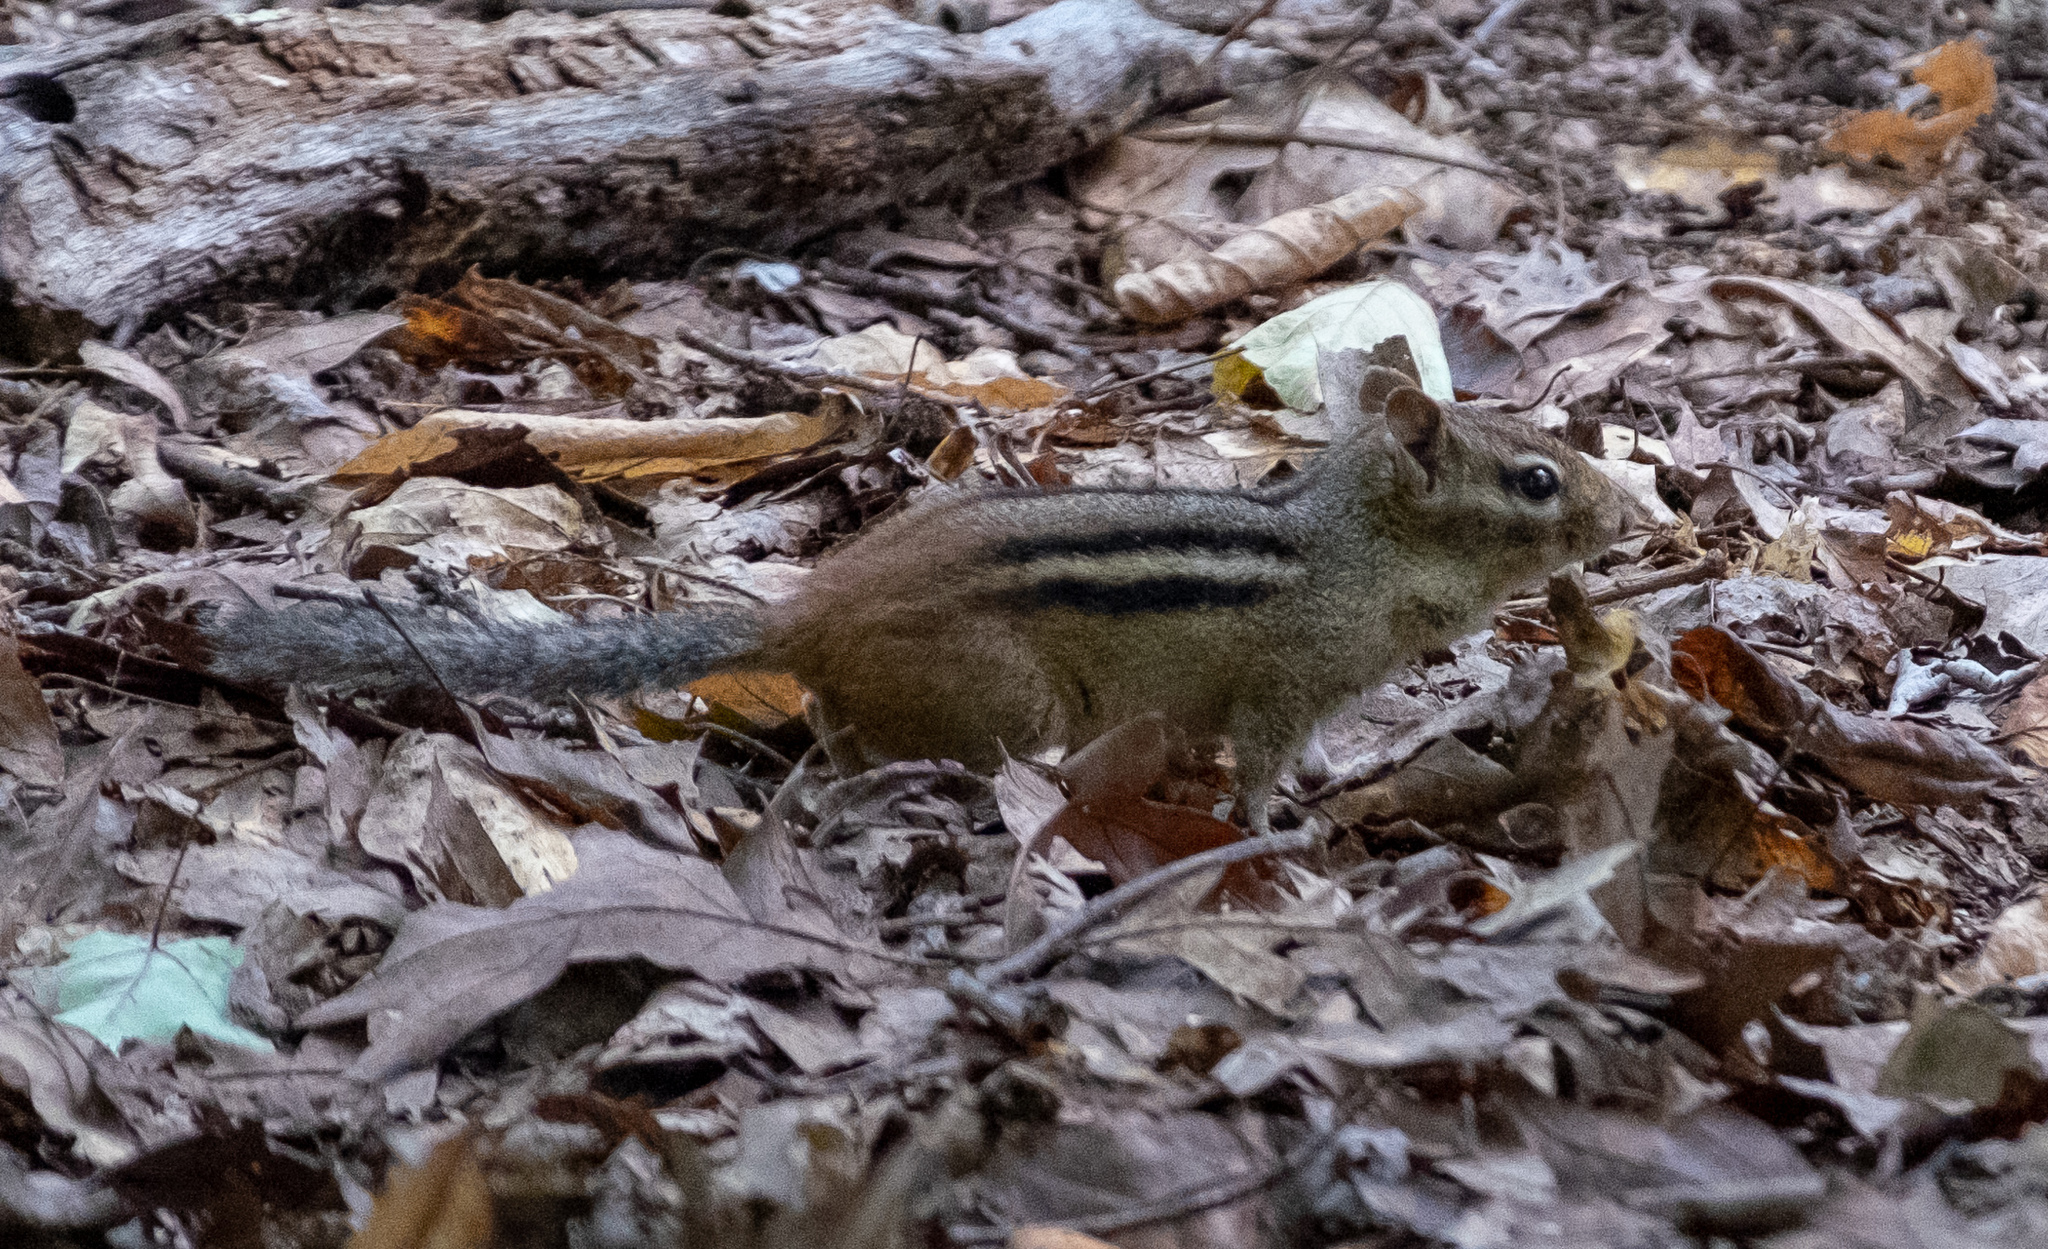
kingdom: Animalia
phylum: Chordata
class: Mammalia
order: Rodentia
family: Sciuridae
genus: Tamias
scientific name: Tamias striatus
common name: Eastern chipmunk
